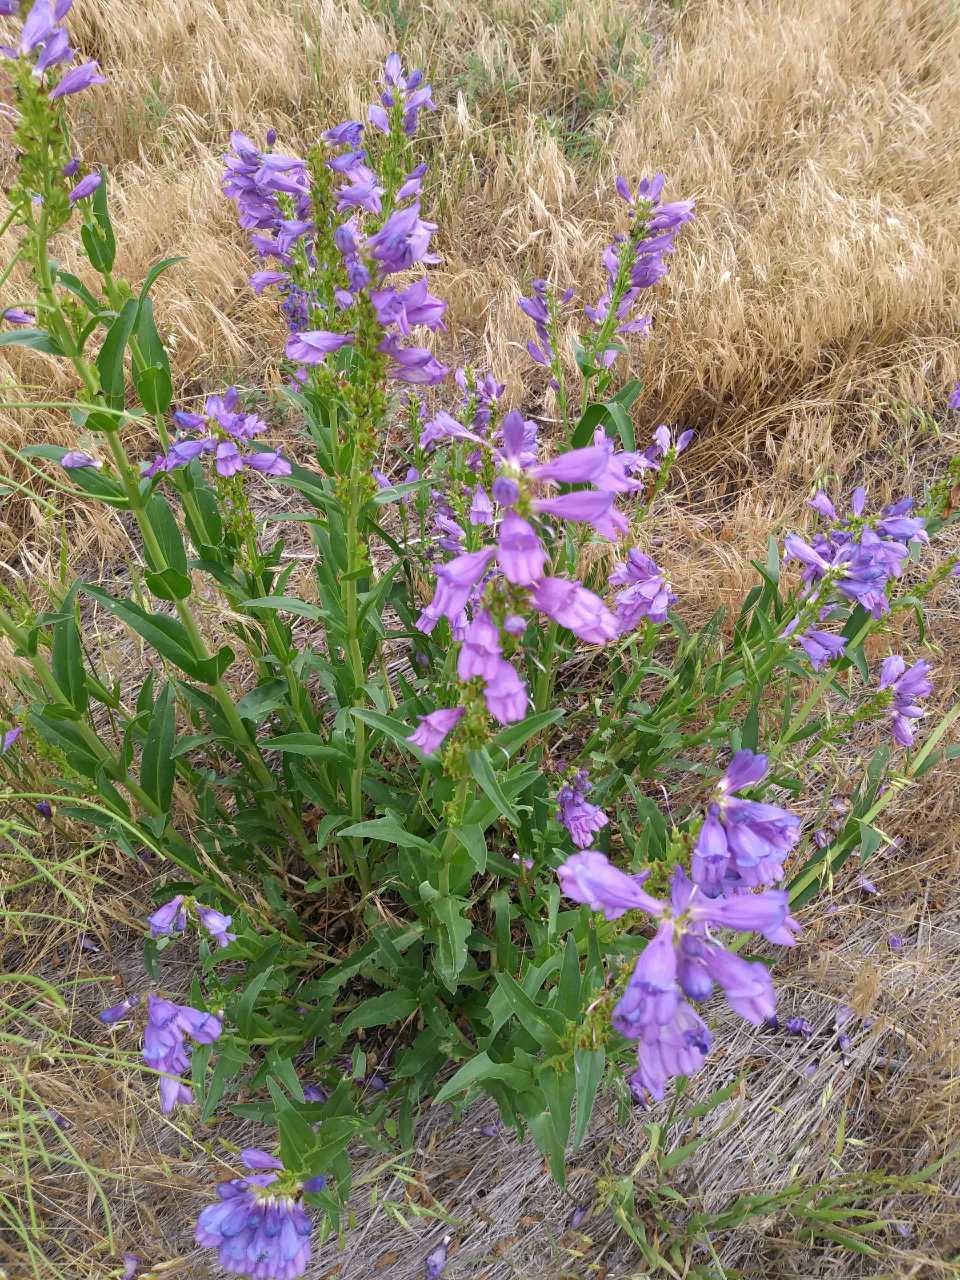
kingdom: Plantae
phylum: Tracheophyta
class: Magnoliopsida
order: Lamiales
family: Plantaginaceae
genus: Penstemon
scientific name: Penstemon strictus
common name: Rocky mountain penstemon
